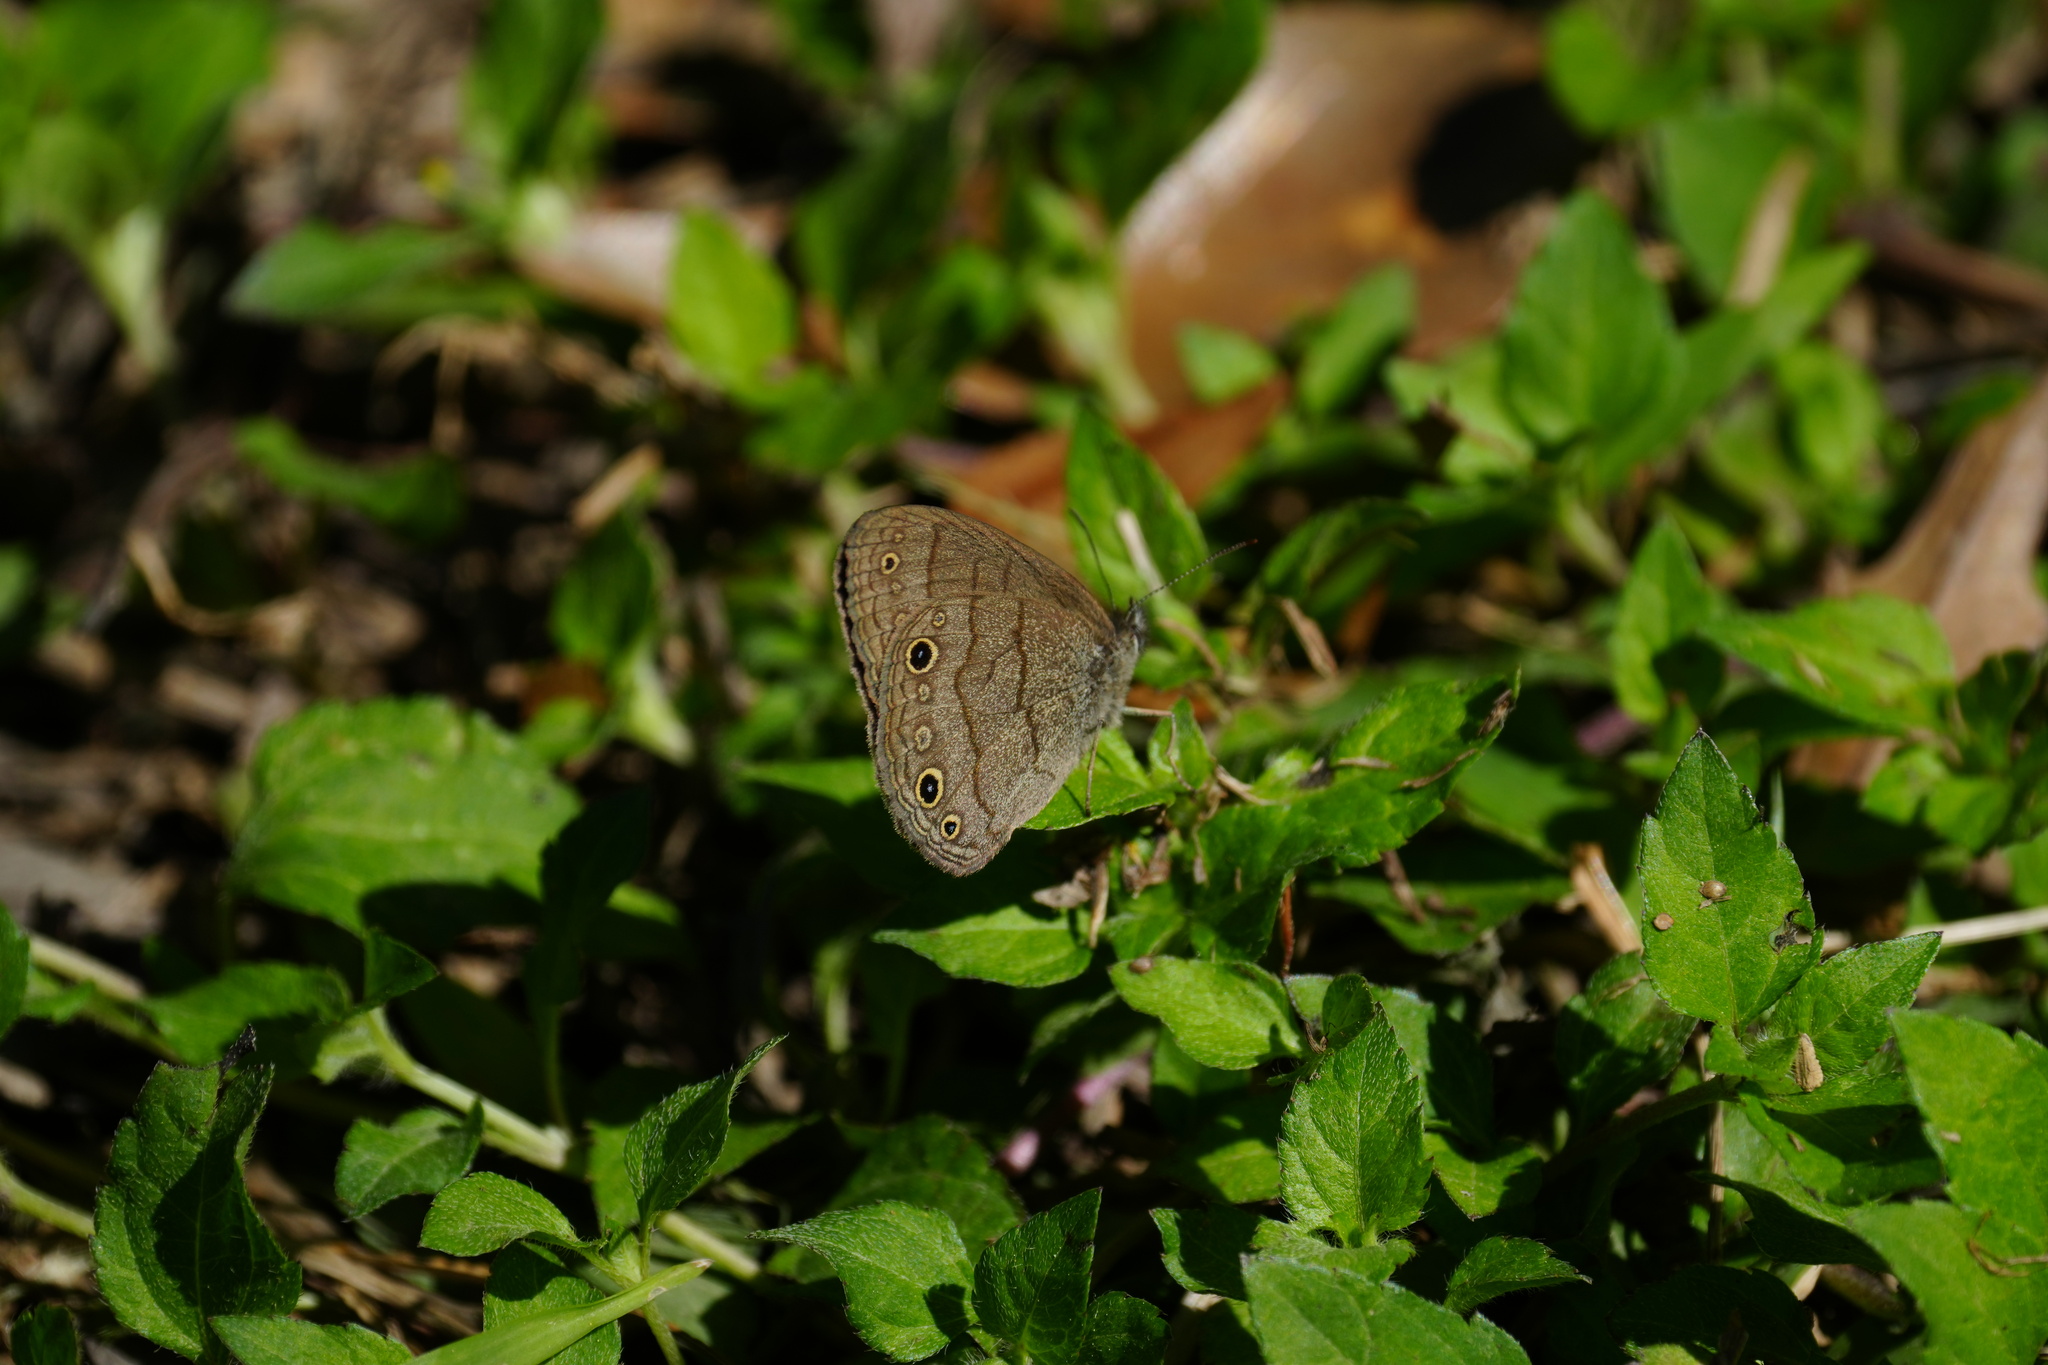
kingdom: Animalia
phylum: Arthropoda
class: Insecta
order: Lepidoptera
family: Nymphalidae
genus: Hermeuptychia
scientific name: Hermeuptychia hermes
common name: Hermes satyr
